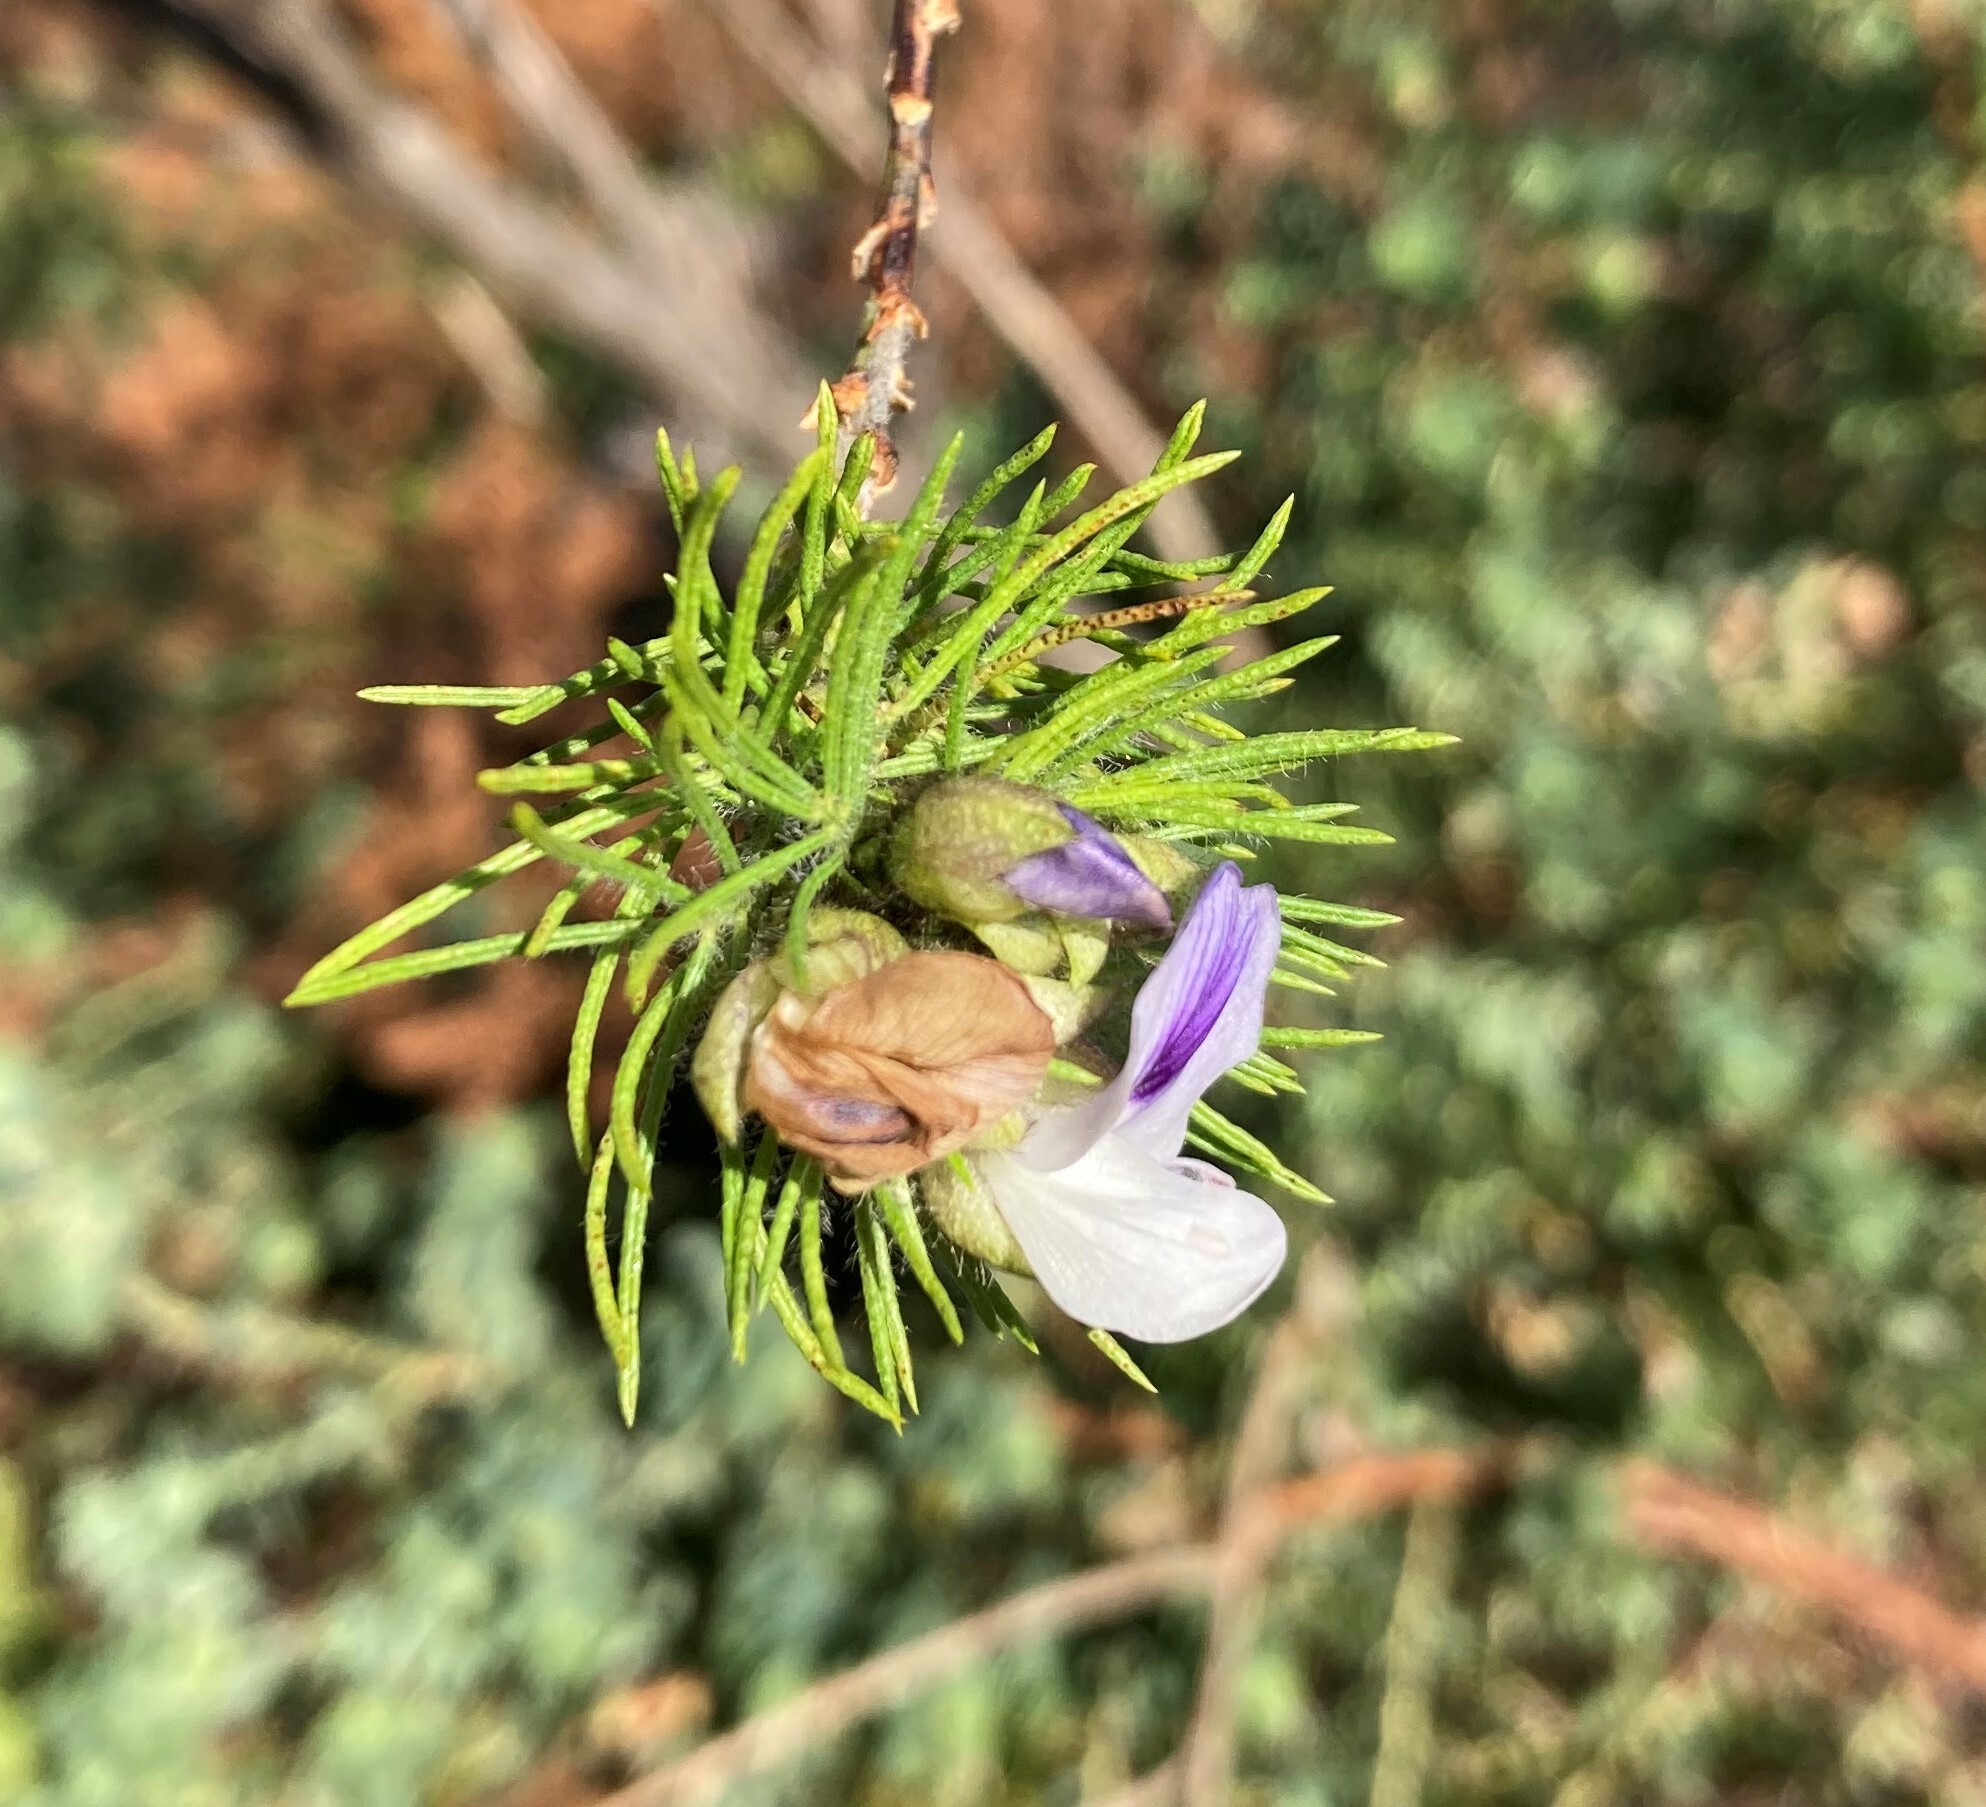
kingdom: Plantae
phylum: Tracheophyta
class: Magnoliopsida
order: Fabales
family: Fabaceae
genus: Psoralea
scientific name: Psoralea floccosa
